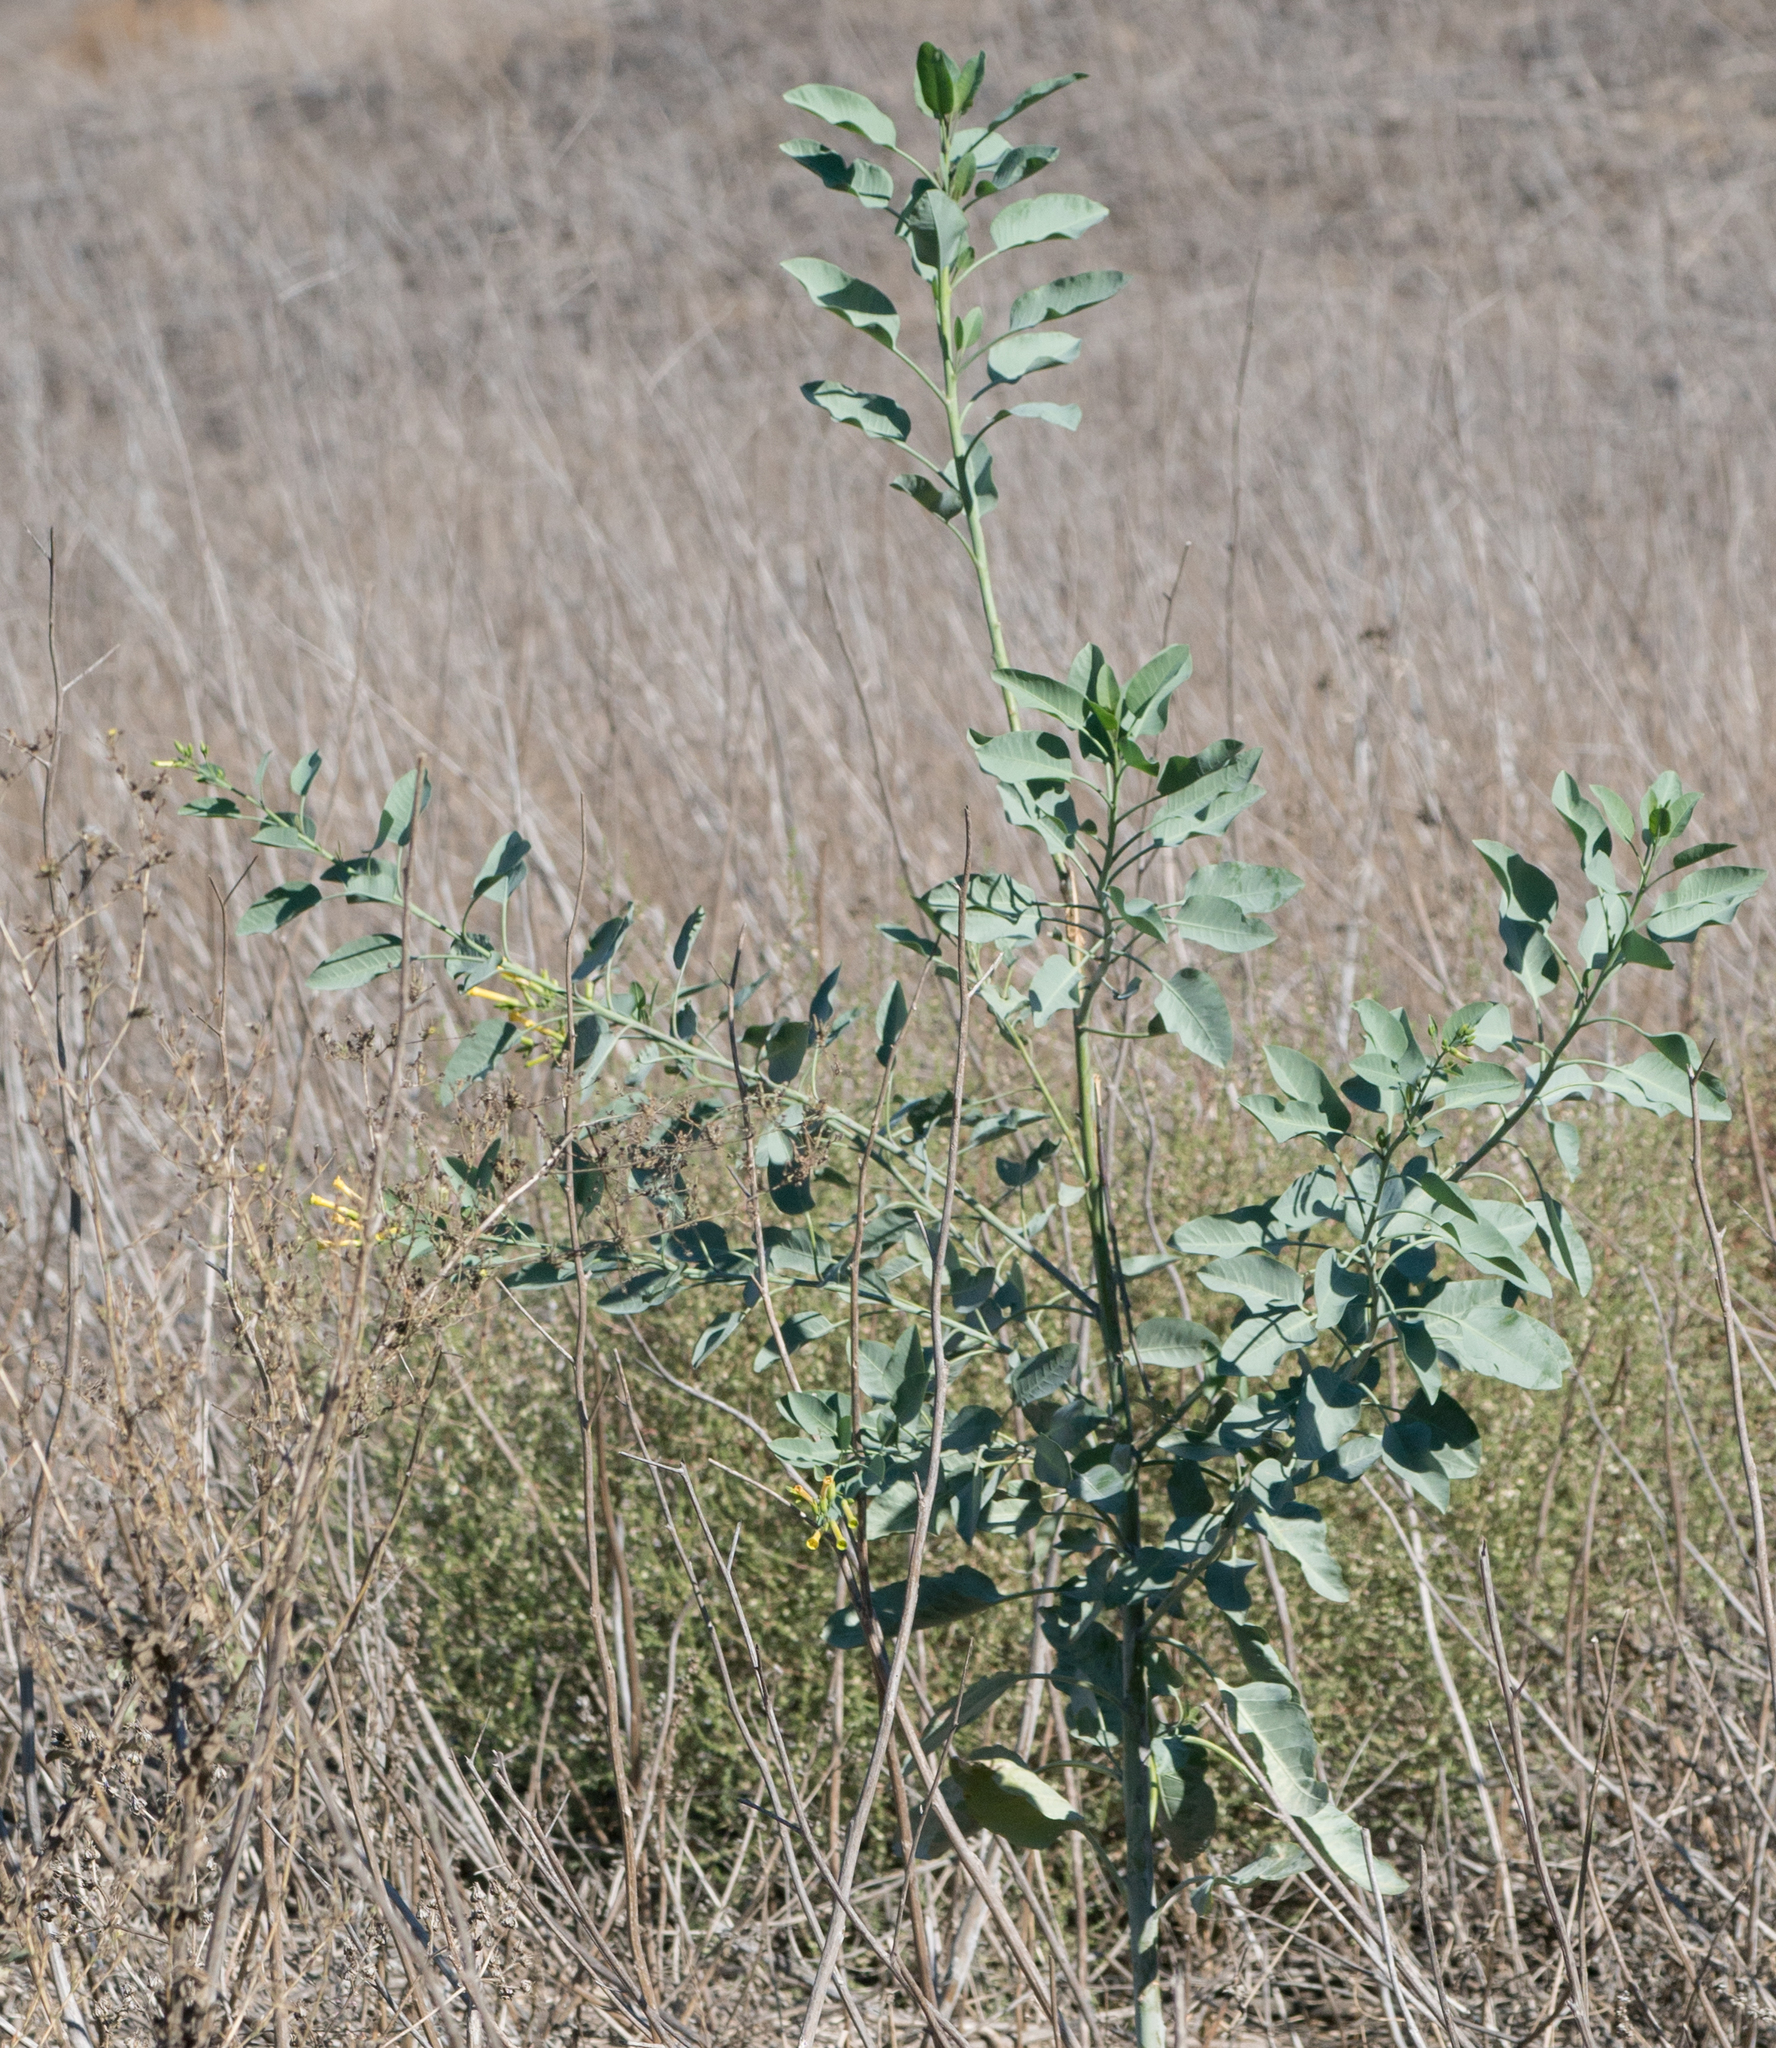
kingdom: Plantae
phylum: Tracheophyta
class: Magnoliopsida
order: Solanales
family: Solanaceae
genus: Nicotiana
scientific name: Nicotiana glauca
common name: Tree tobacco
